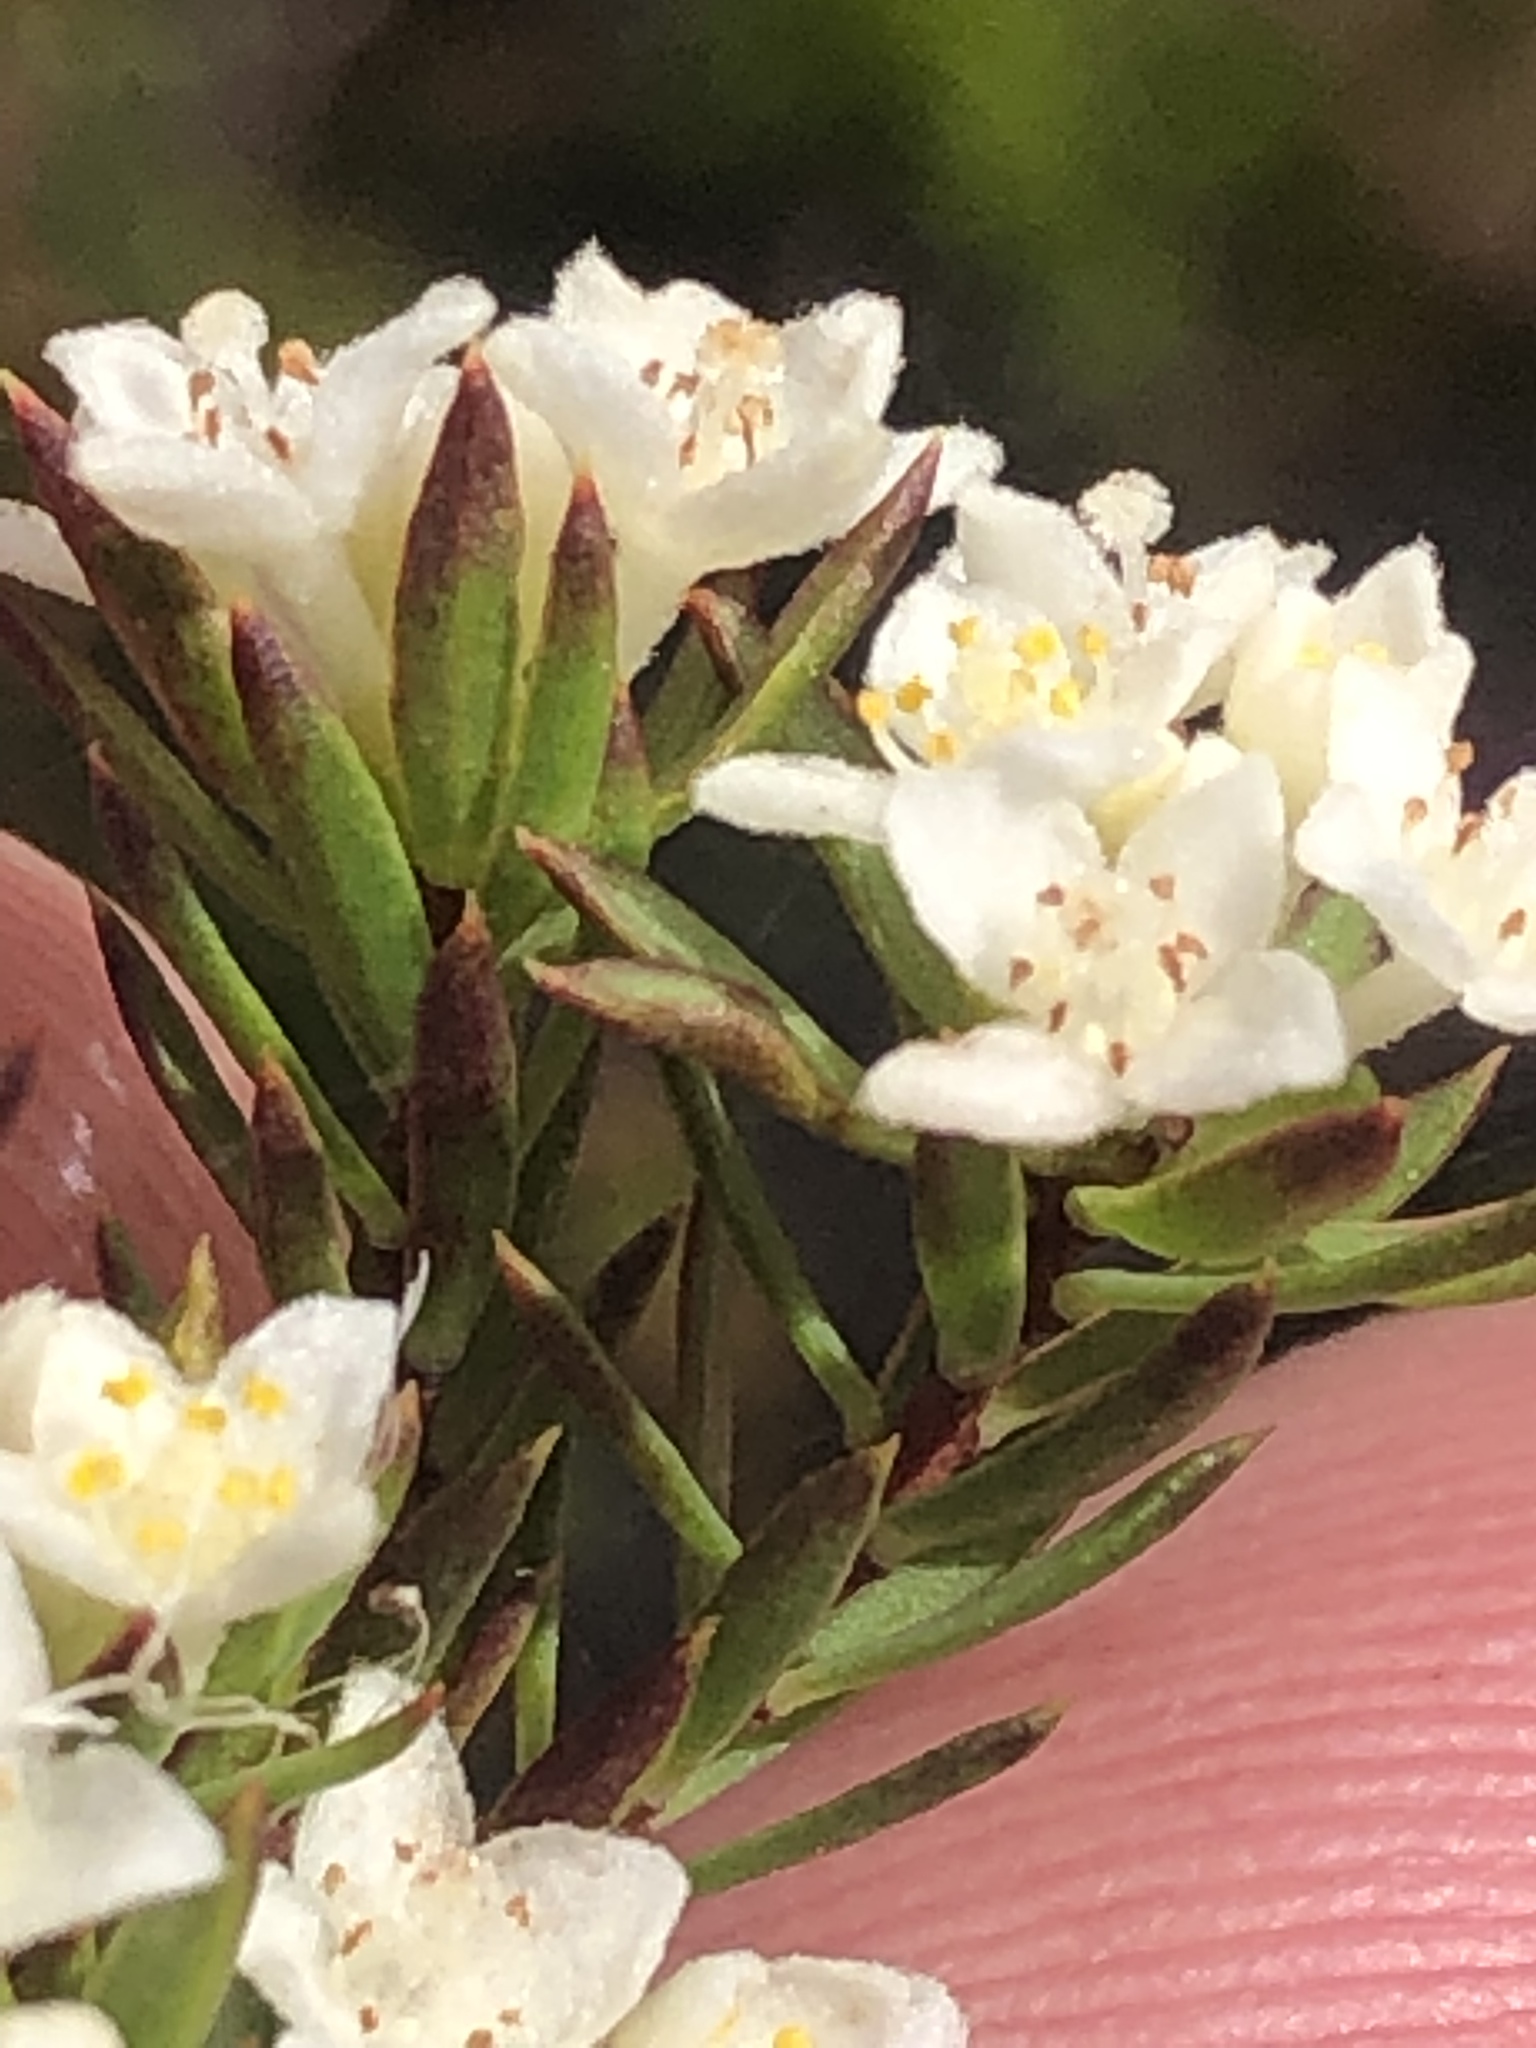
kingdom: Plantae
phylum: Tracheophyta
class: Magnoliopsida
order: Malvales
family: Thymelaeaceae
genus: Lachnaea
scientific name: Lachnaea diosmoides
